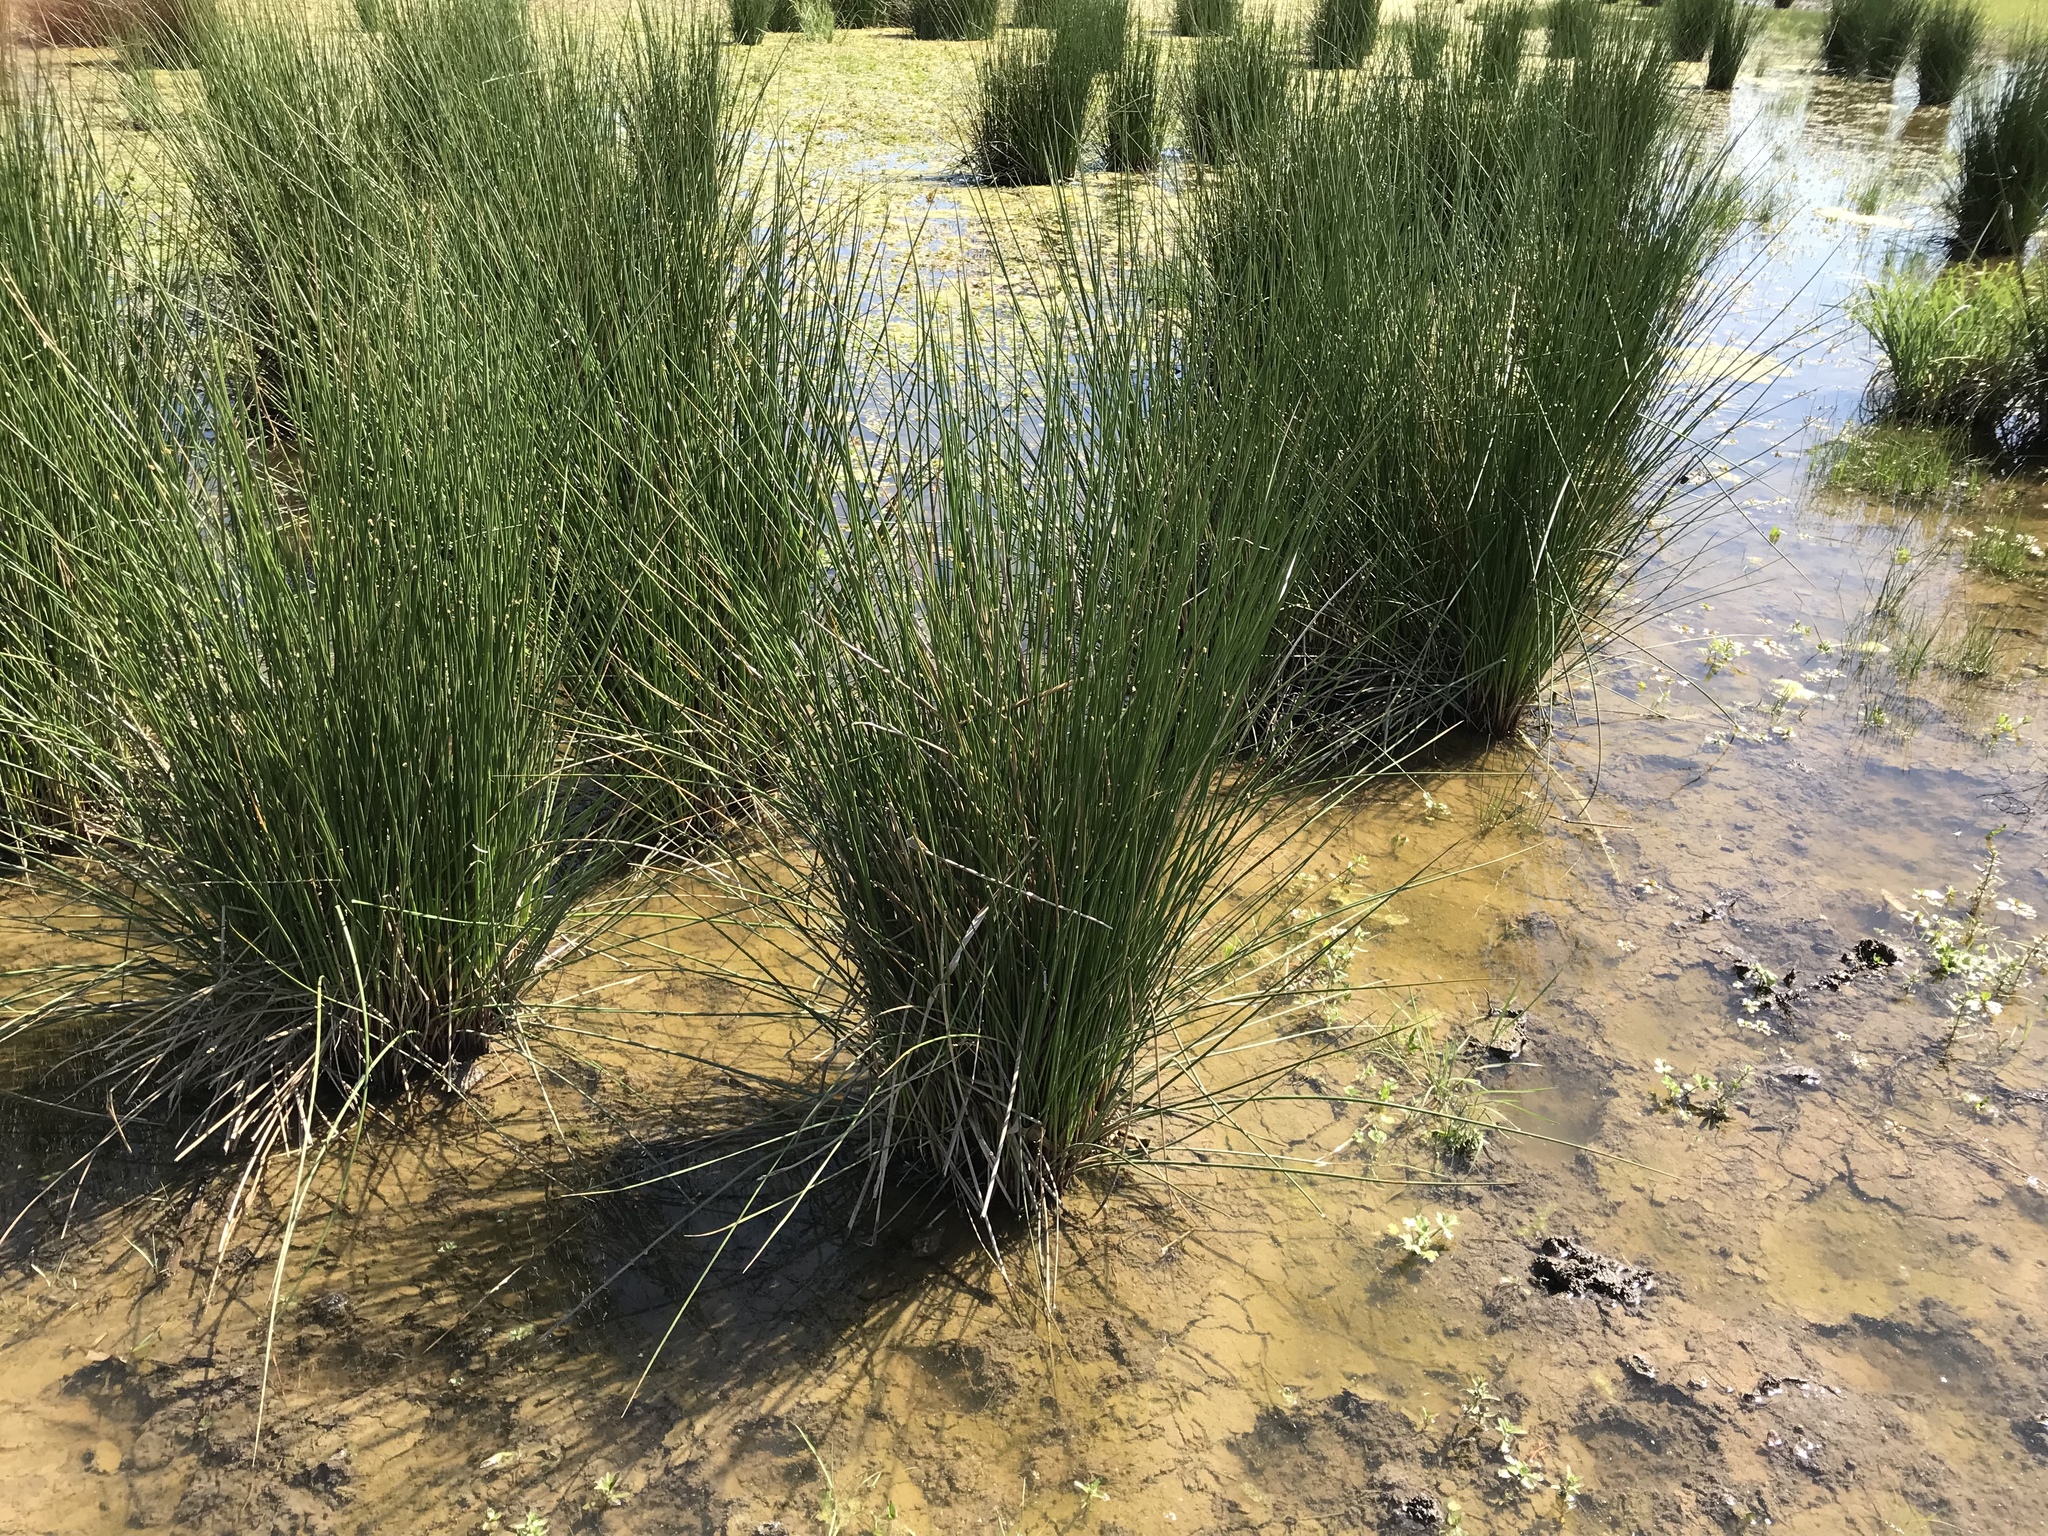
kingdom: Plantae
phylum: Tracheophyta
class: Liliopsida
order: Poales
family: Juncaceae
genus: Juncus
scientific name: Juncus effusus
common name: Soft rush
